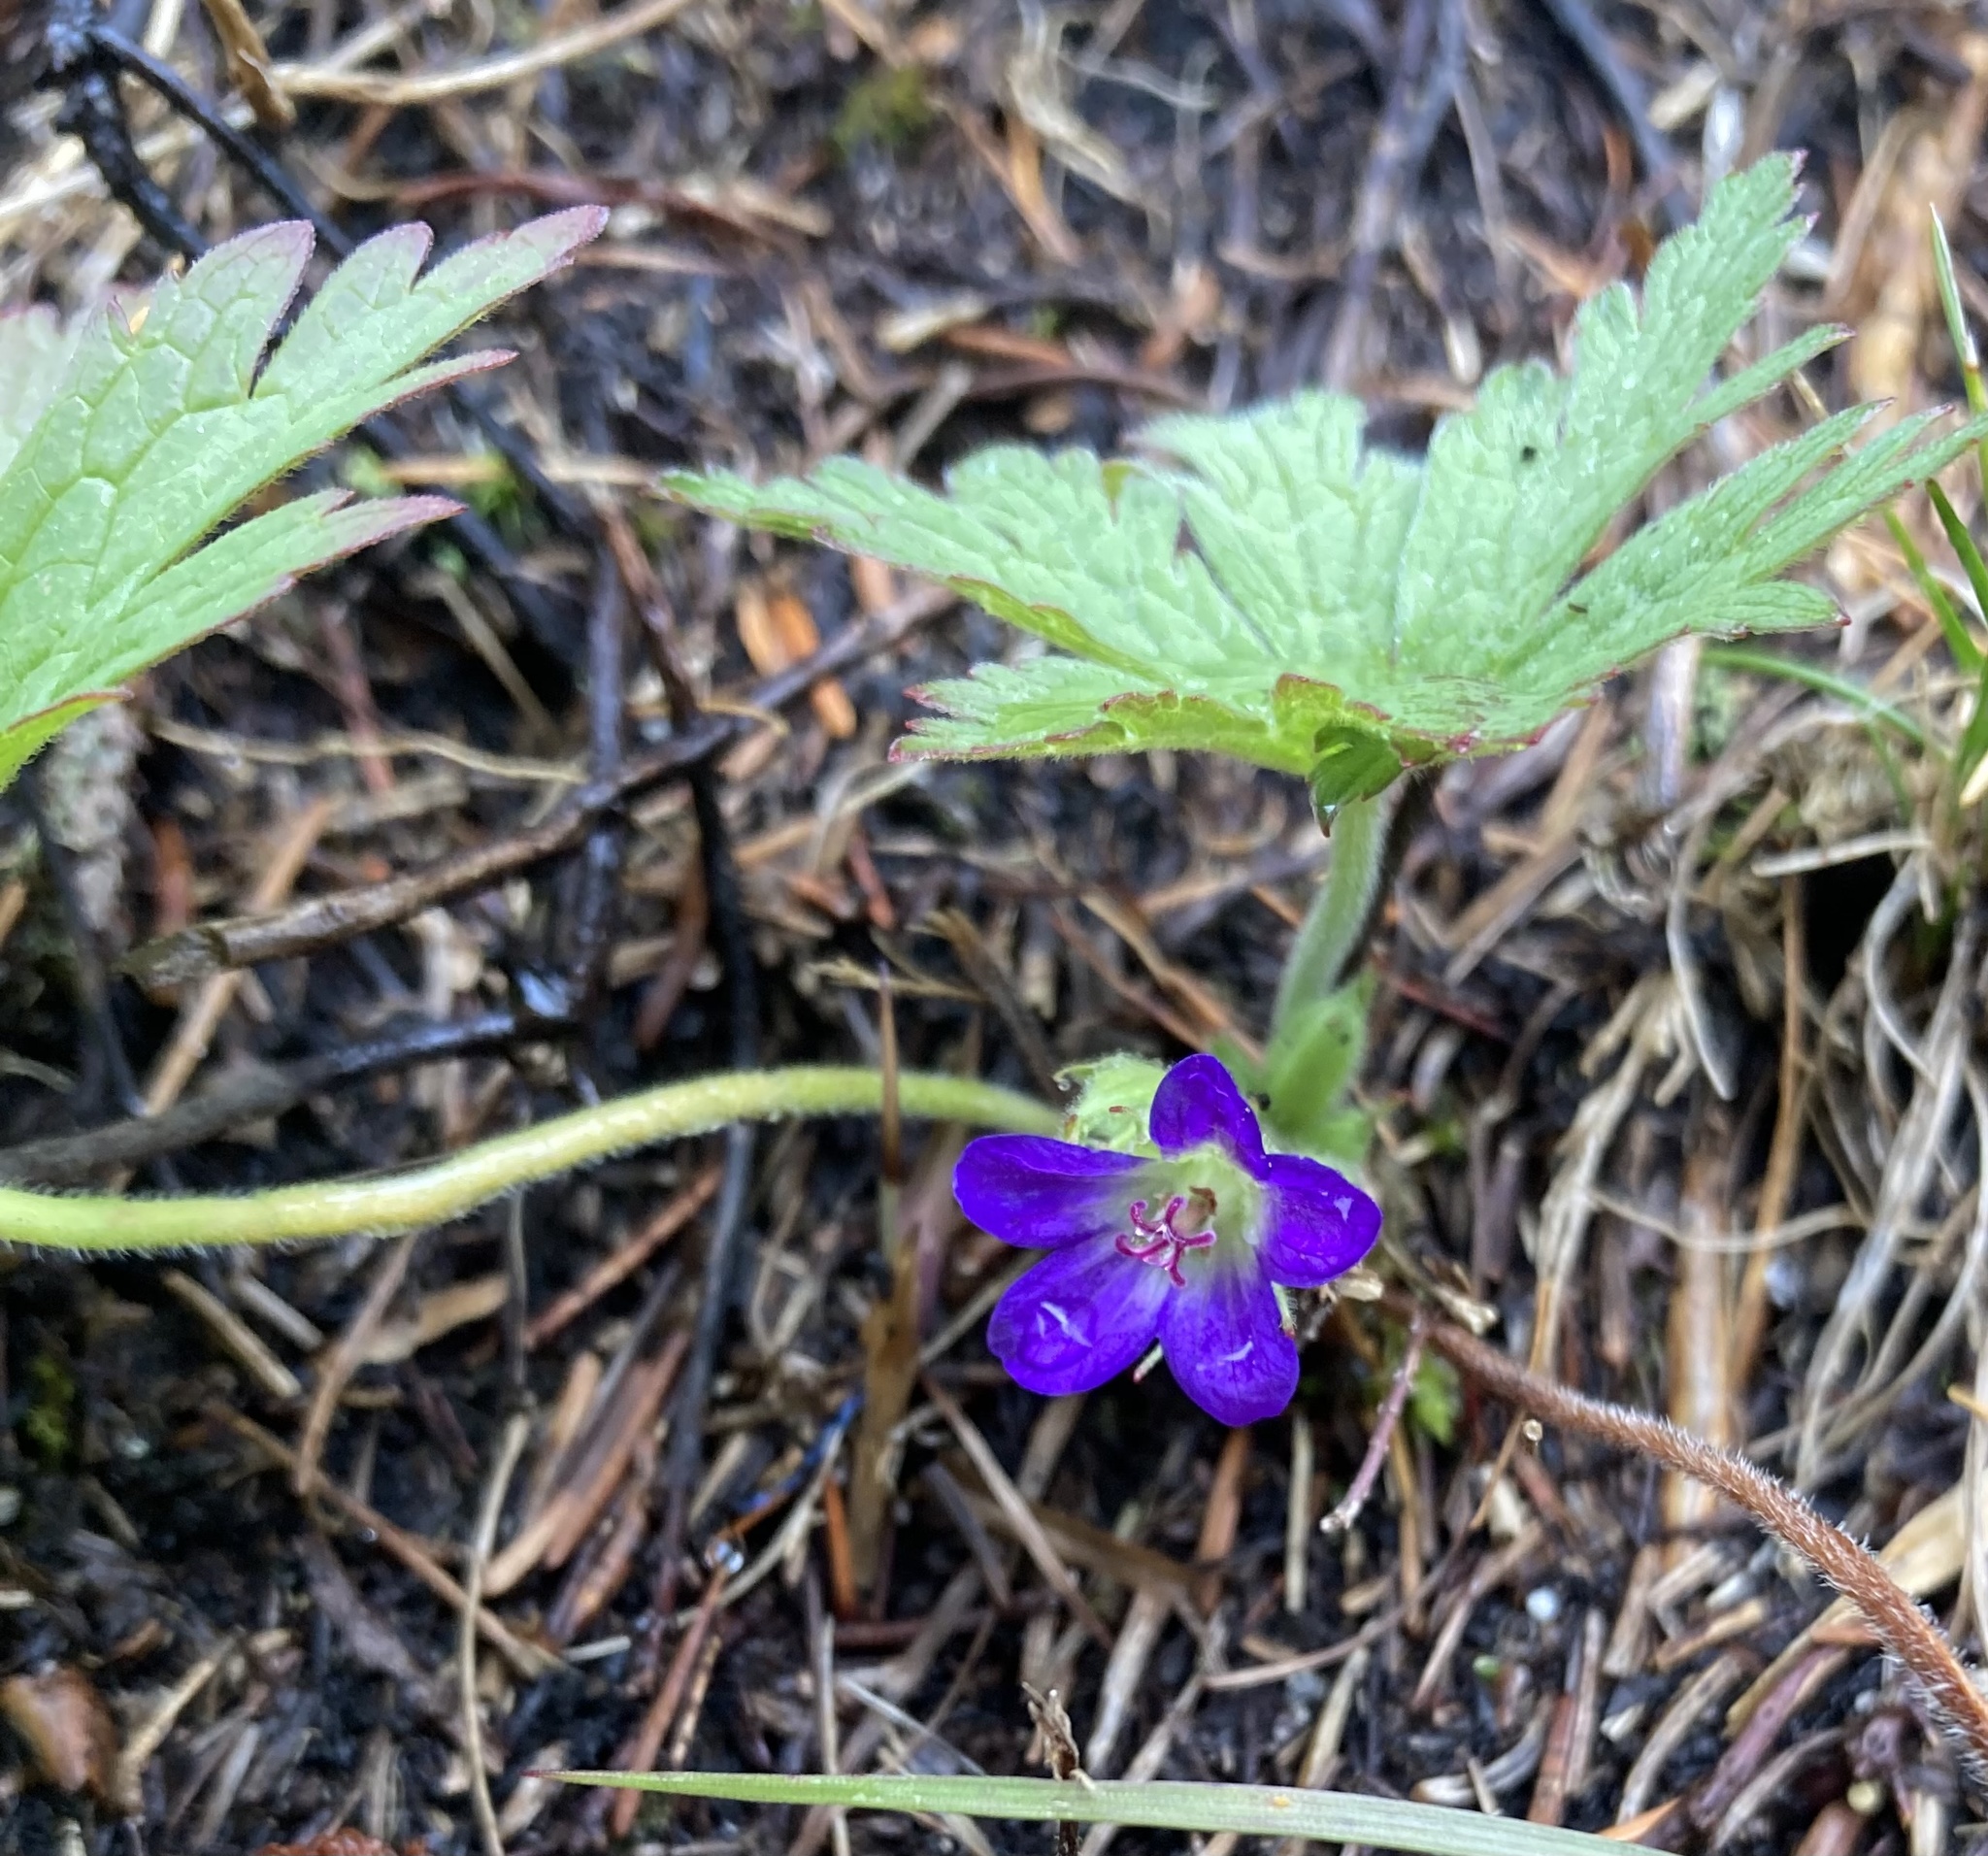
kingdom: Plantae
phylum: Tracheophyta
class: Magnoliopsida
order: Geraniales
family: Geraniaceae
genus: Geranium
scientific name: Geranium sylvaticum
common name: Wood crane's-bill
